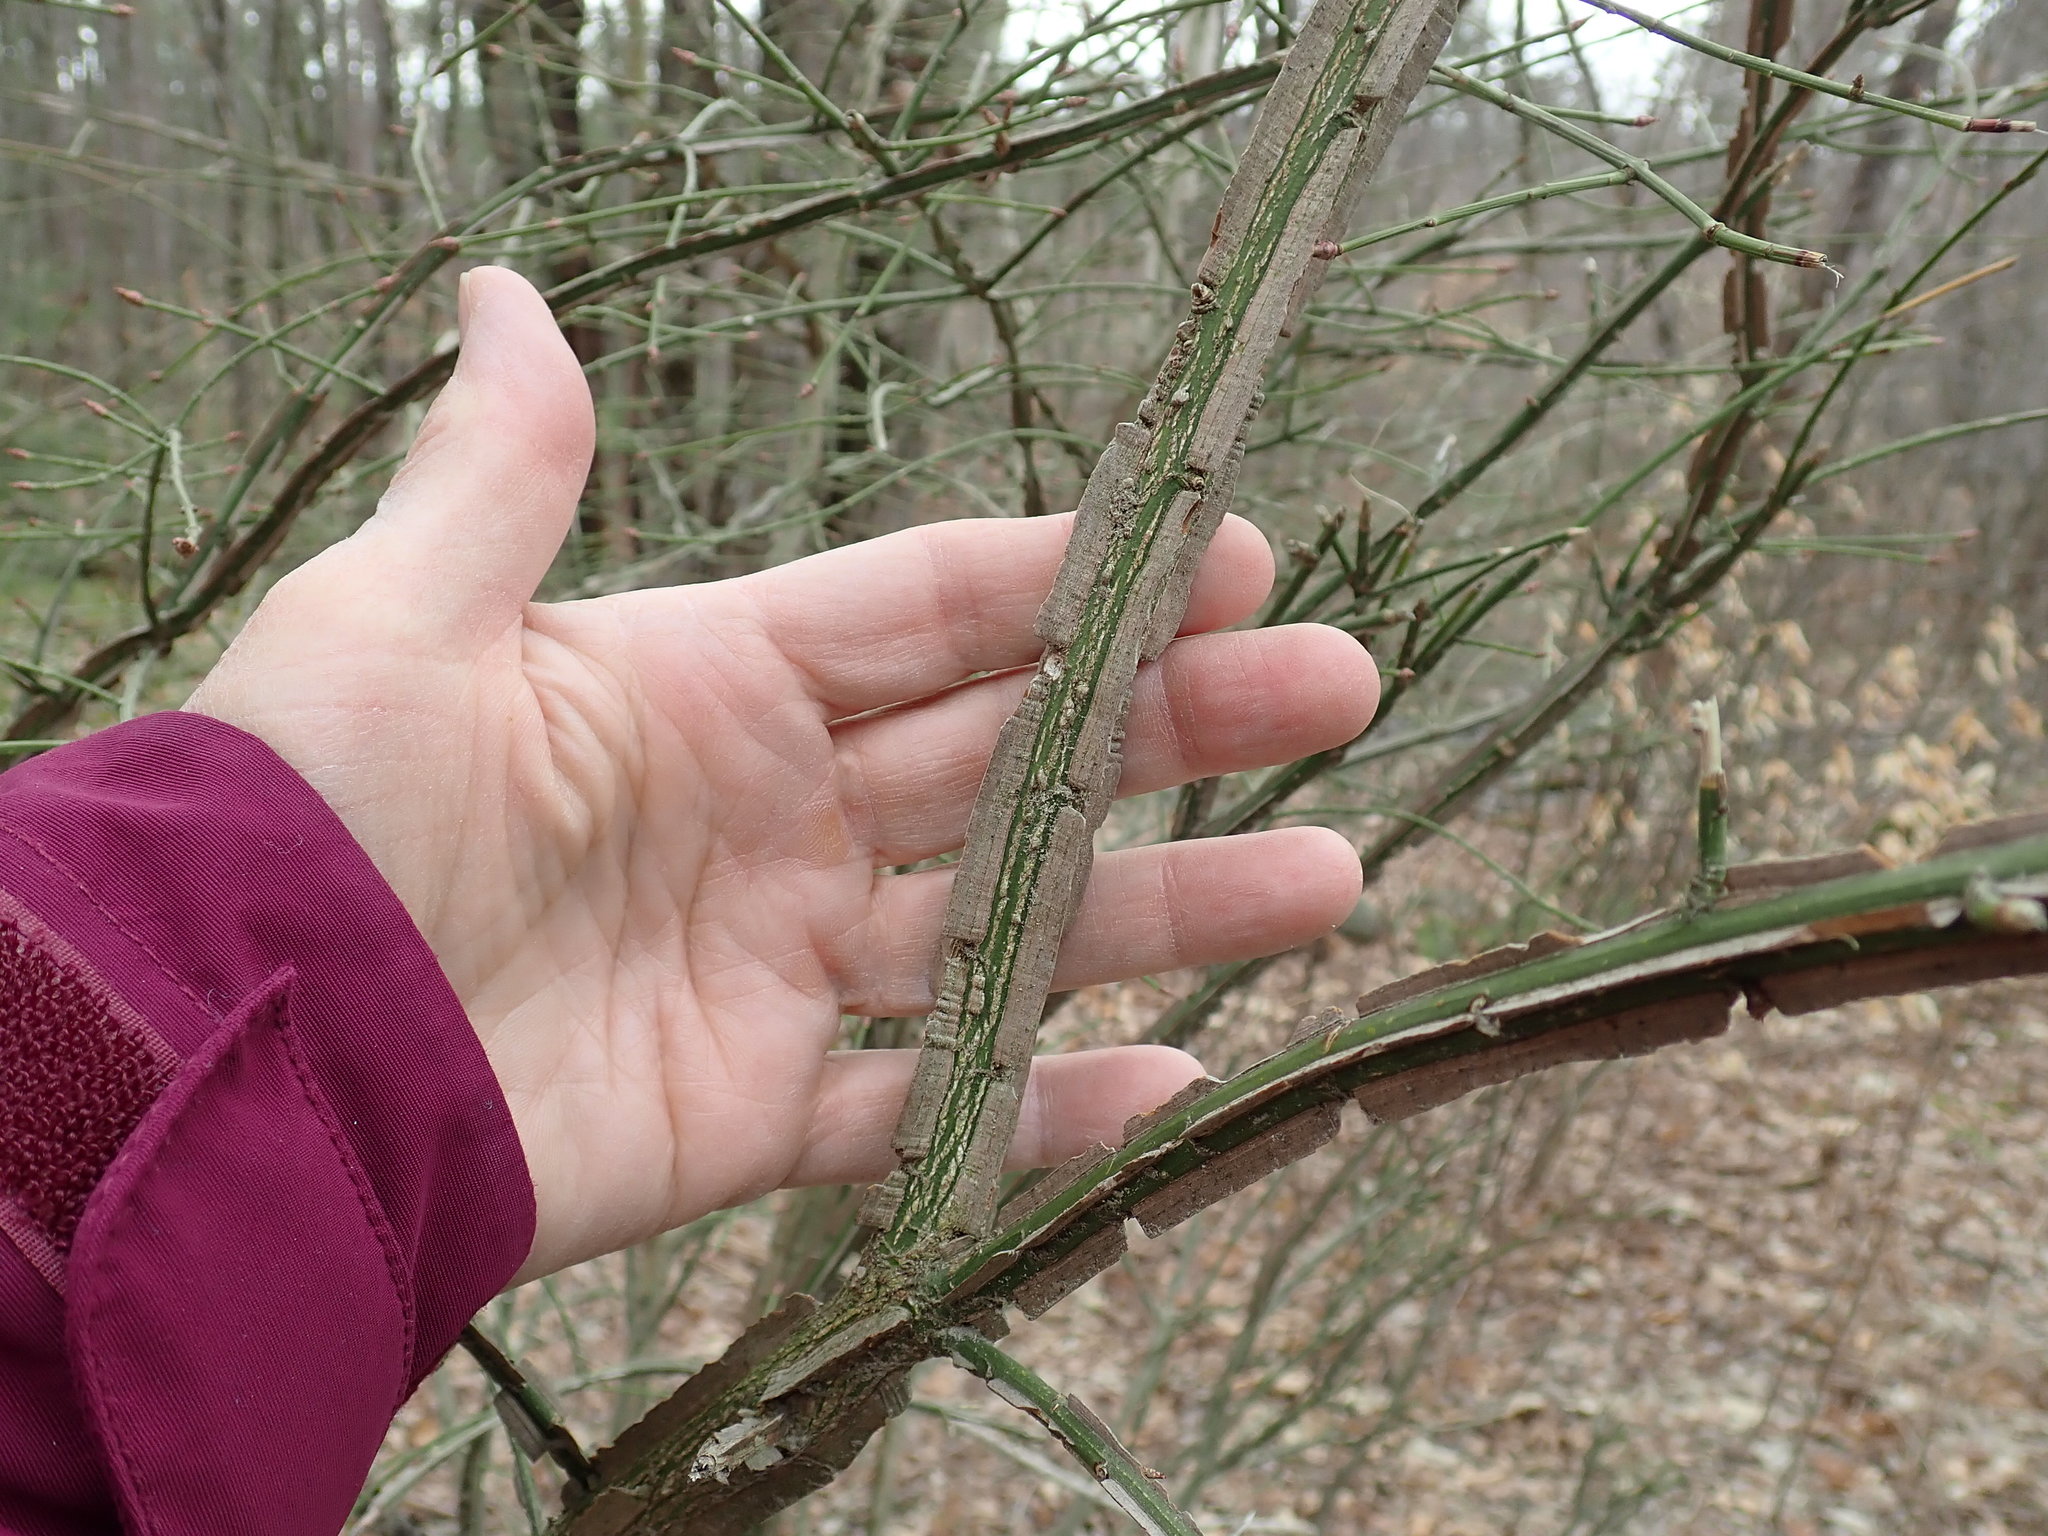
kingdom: Plantae
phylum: Tracheophyta
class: Magnoliopsida
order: Celastrales
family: Celastraceae
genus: Euonymus
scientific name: Euonymus alatus
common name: Winged euonymus
